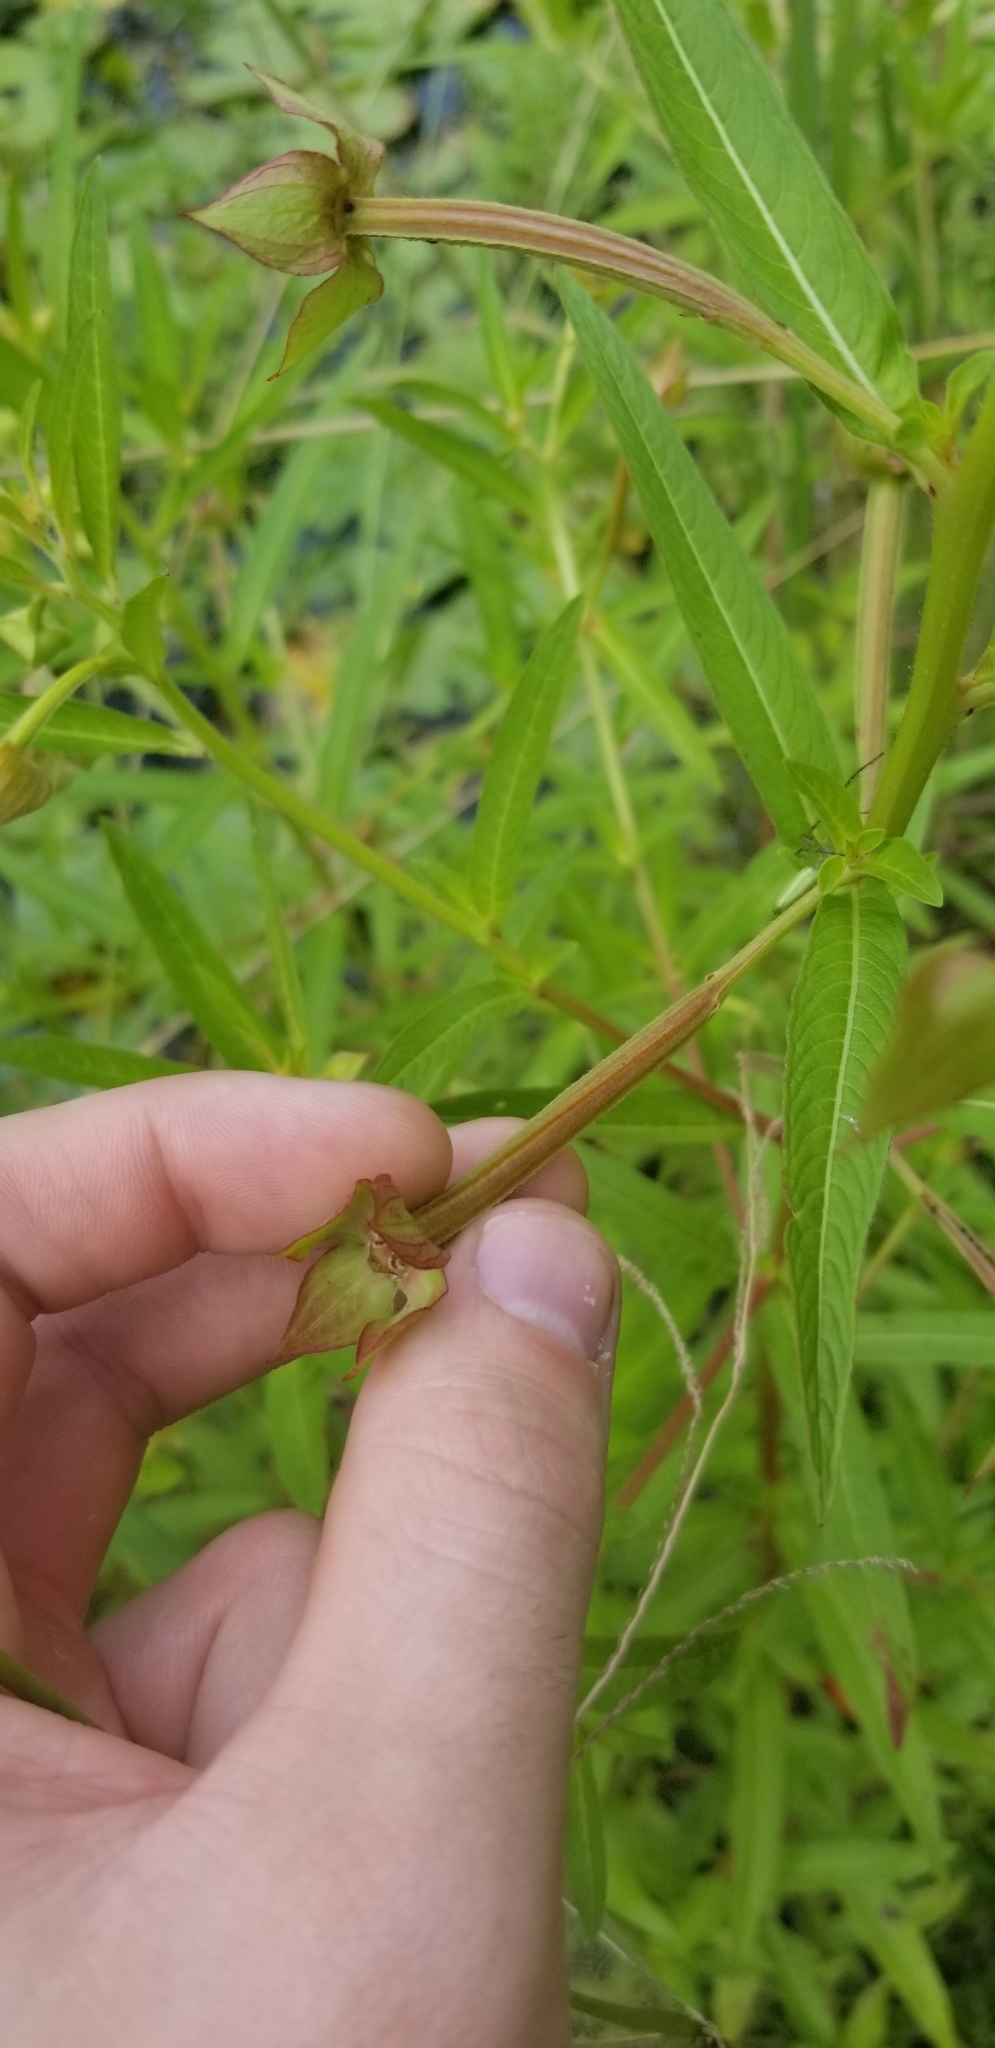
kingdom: Plantae
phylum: Tracheophyta
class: Magnoliopsida
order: Myrtales
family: Onagraceae
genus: Ludwigia
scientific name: Ludwigia octovalvis
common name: Water-primrose
